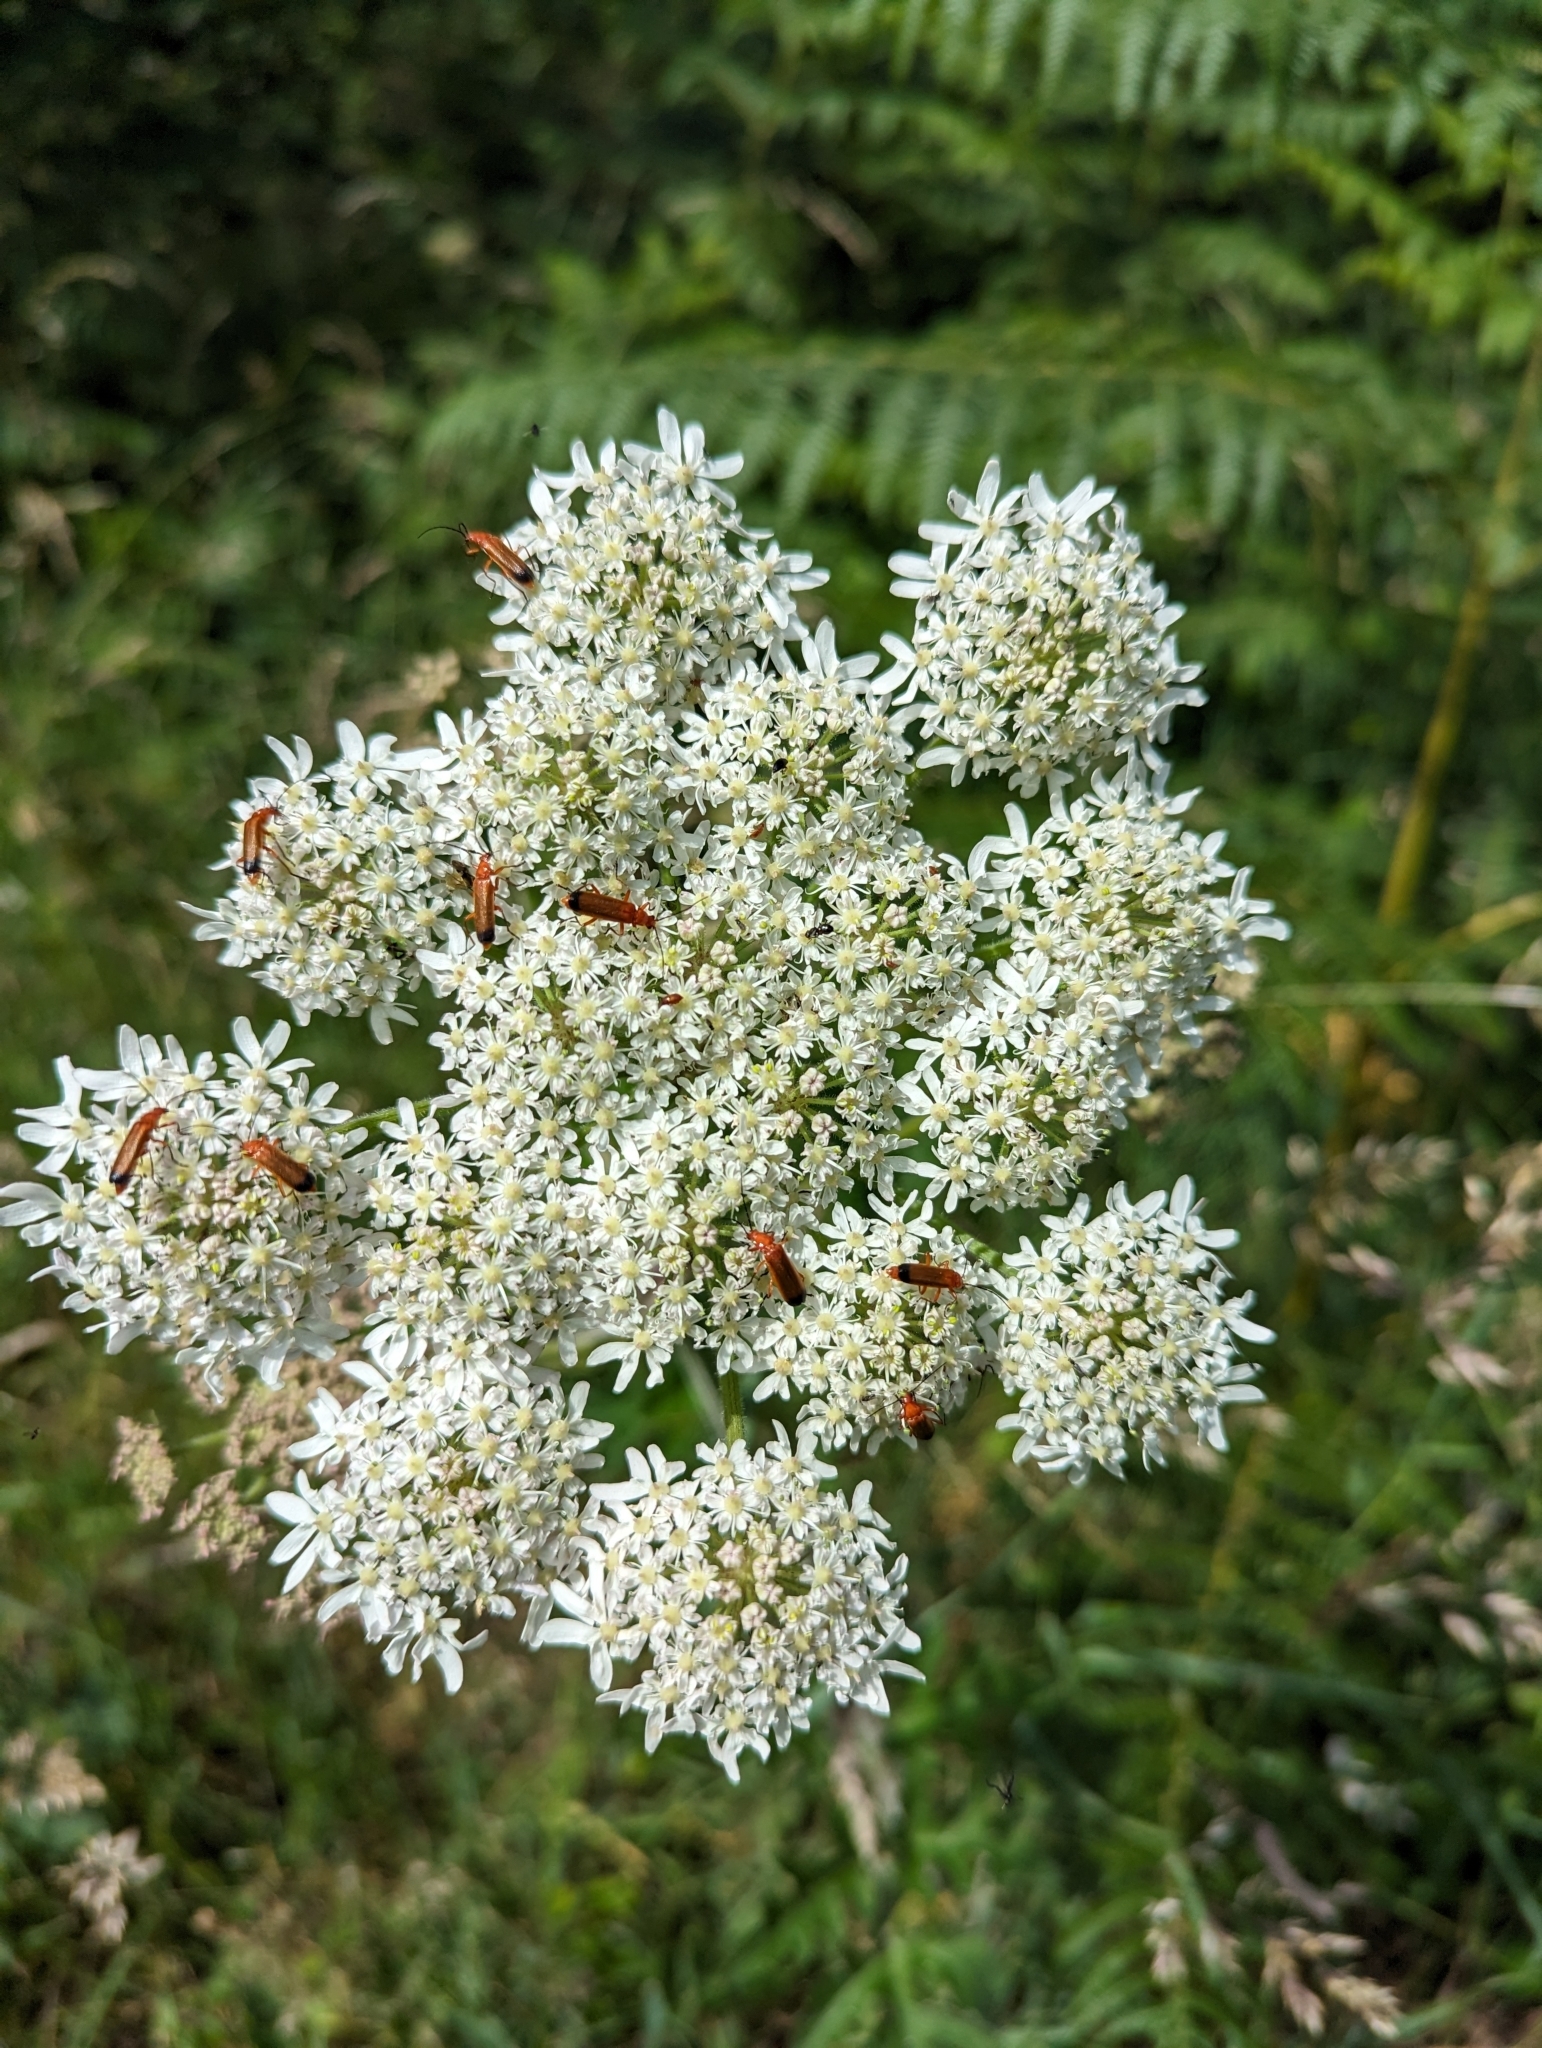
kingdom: Animalia
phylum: Arthropoda
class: Insecta
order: Coleoptera
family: Cantharidae
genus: Rhagonycha
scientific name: Rhagonycha fulva
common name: Common red soldier beetle
